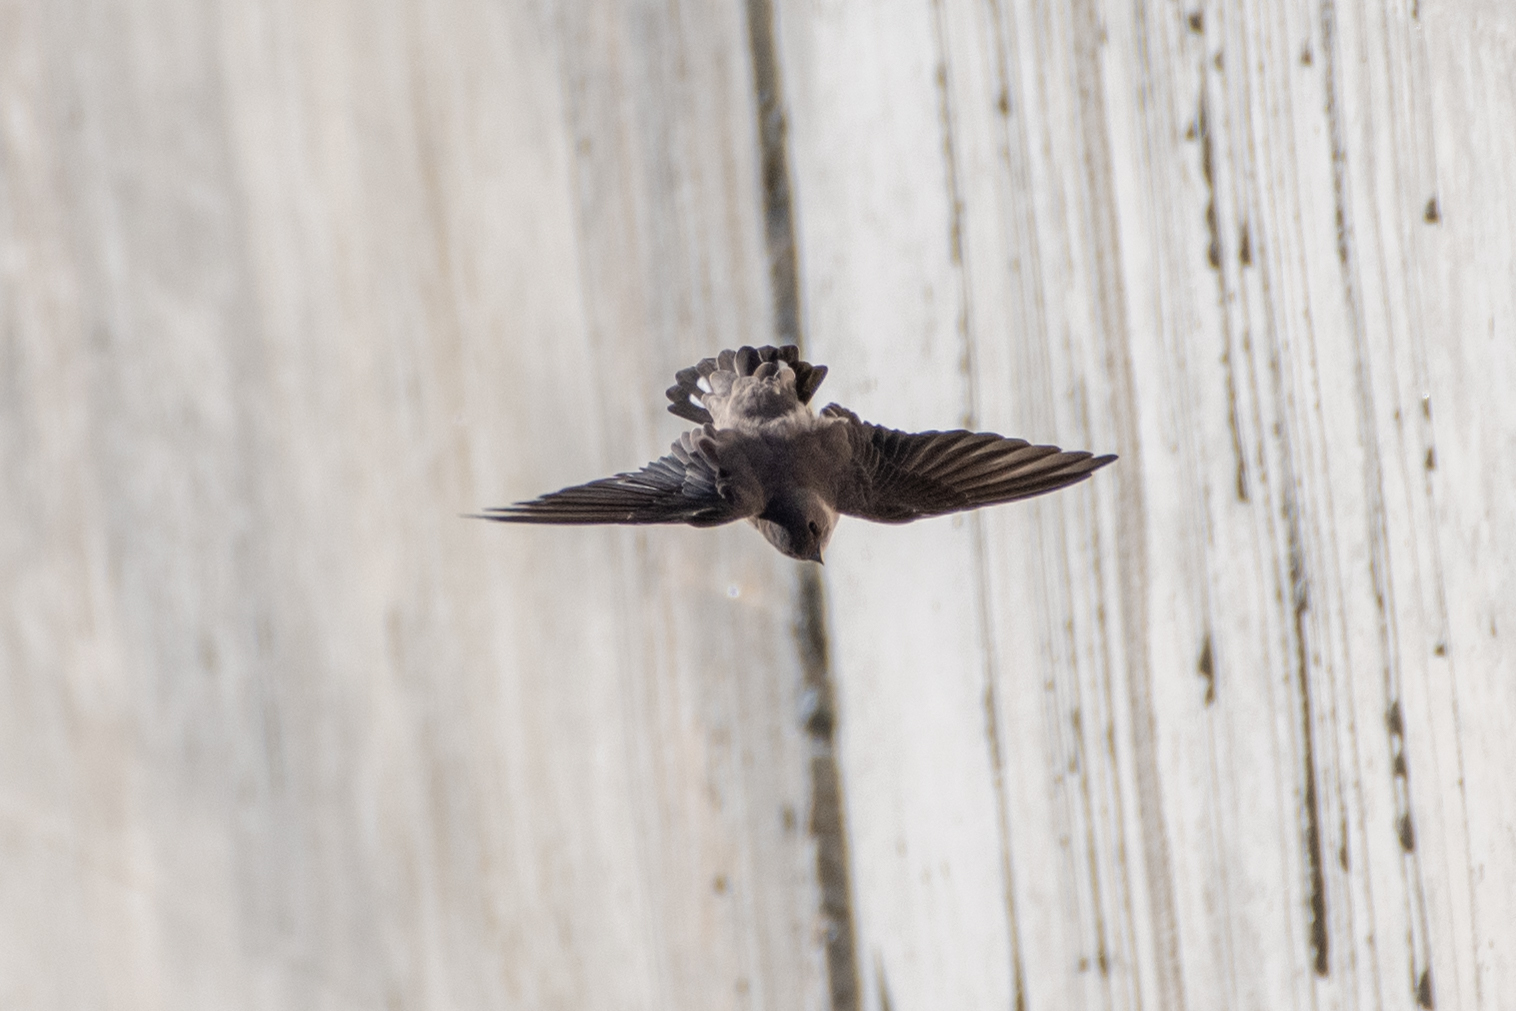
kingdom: Animalia
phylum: Chordata
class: Aves
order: Passeriformes
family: Hirundinidae
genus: Ptyonoprogne
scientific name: Ptyonoprogne rupestris
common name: Eurasian crag martin
